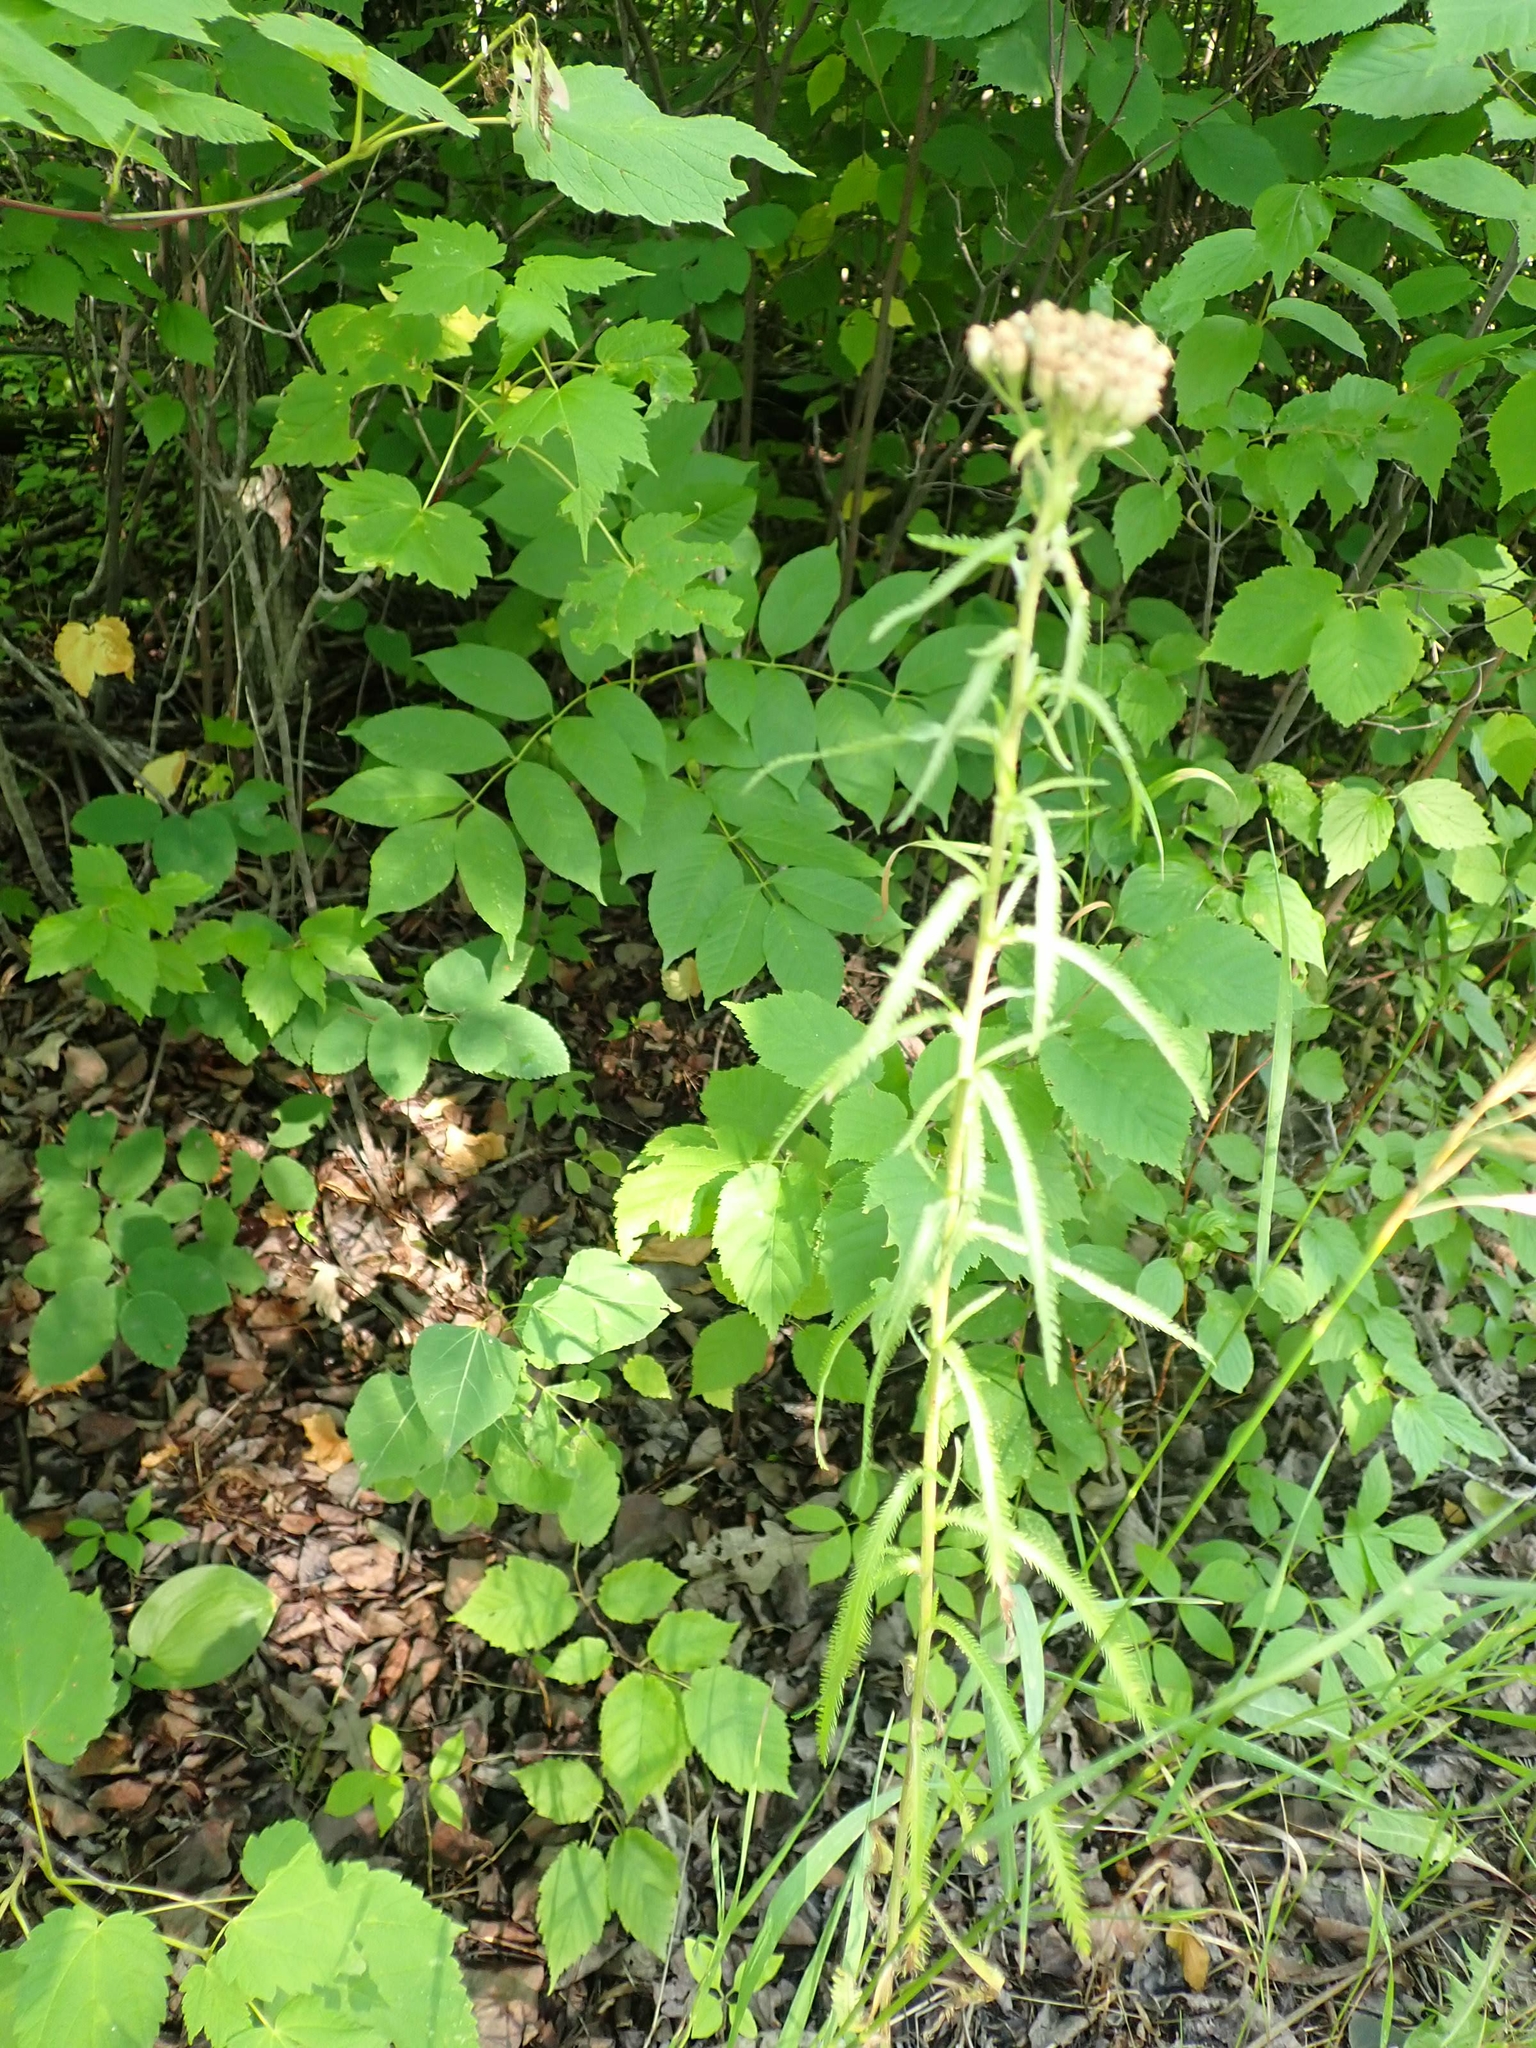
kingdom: Plantae
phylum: Tracheophyta
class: Magnoliopsida
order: Asterales
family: Asteraceae
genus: Achillea
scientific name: Achillea alpina
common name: Siberian yarrow
